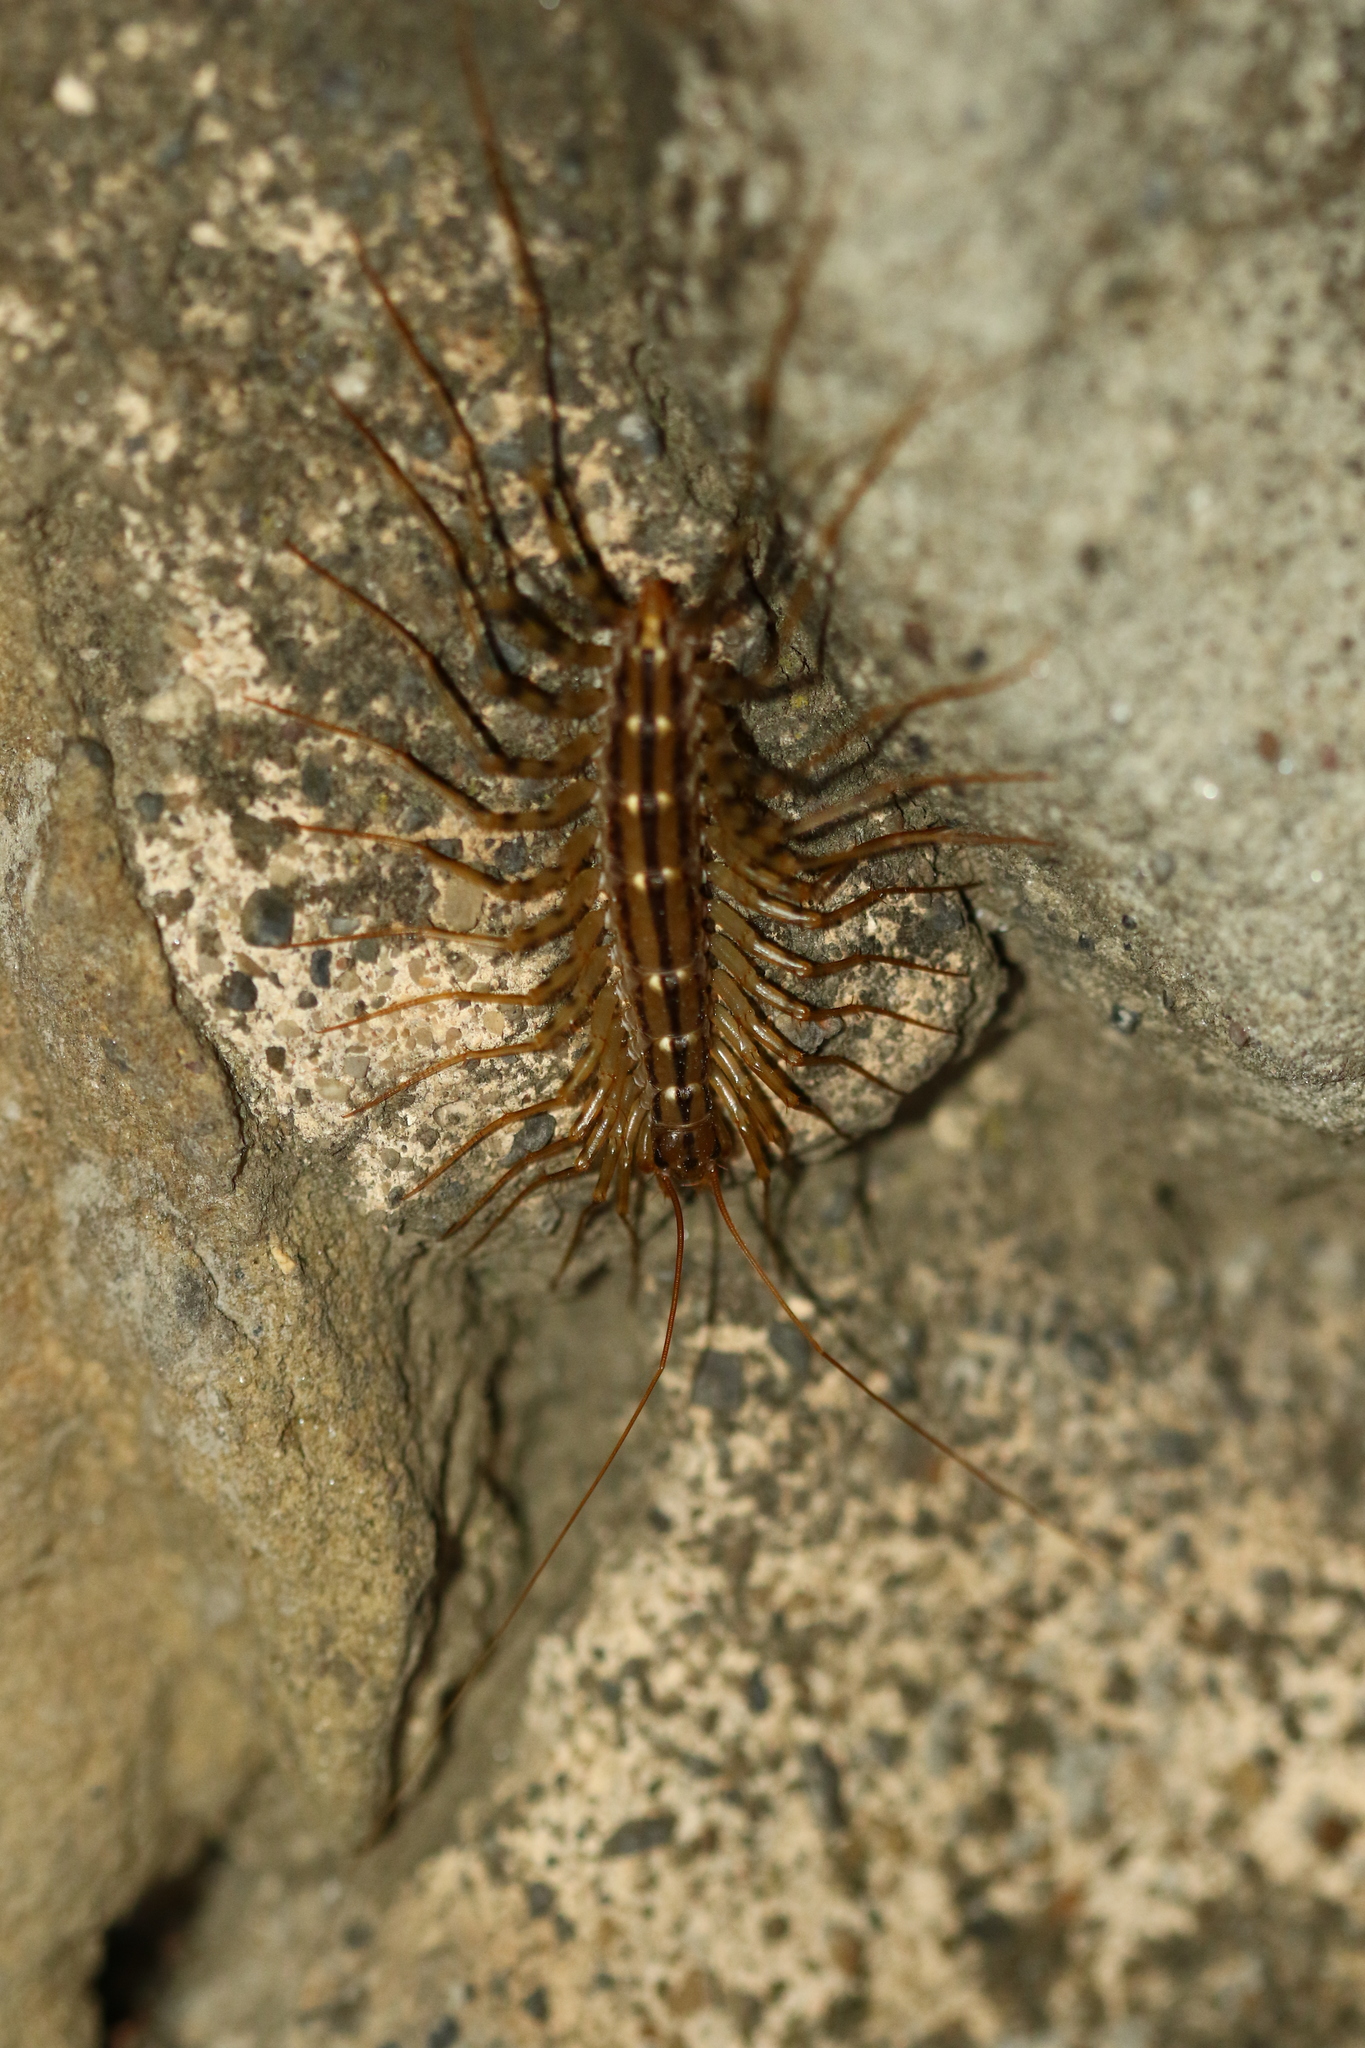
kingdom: Animalia
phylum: Arthropoda
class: Chilopoda
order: Scutigeromorpha
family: Scutigeridae
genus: Scutigera
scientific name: Scutigera coleoptrata
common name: House centipede
